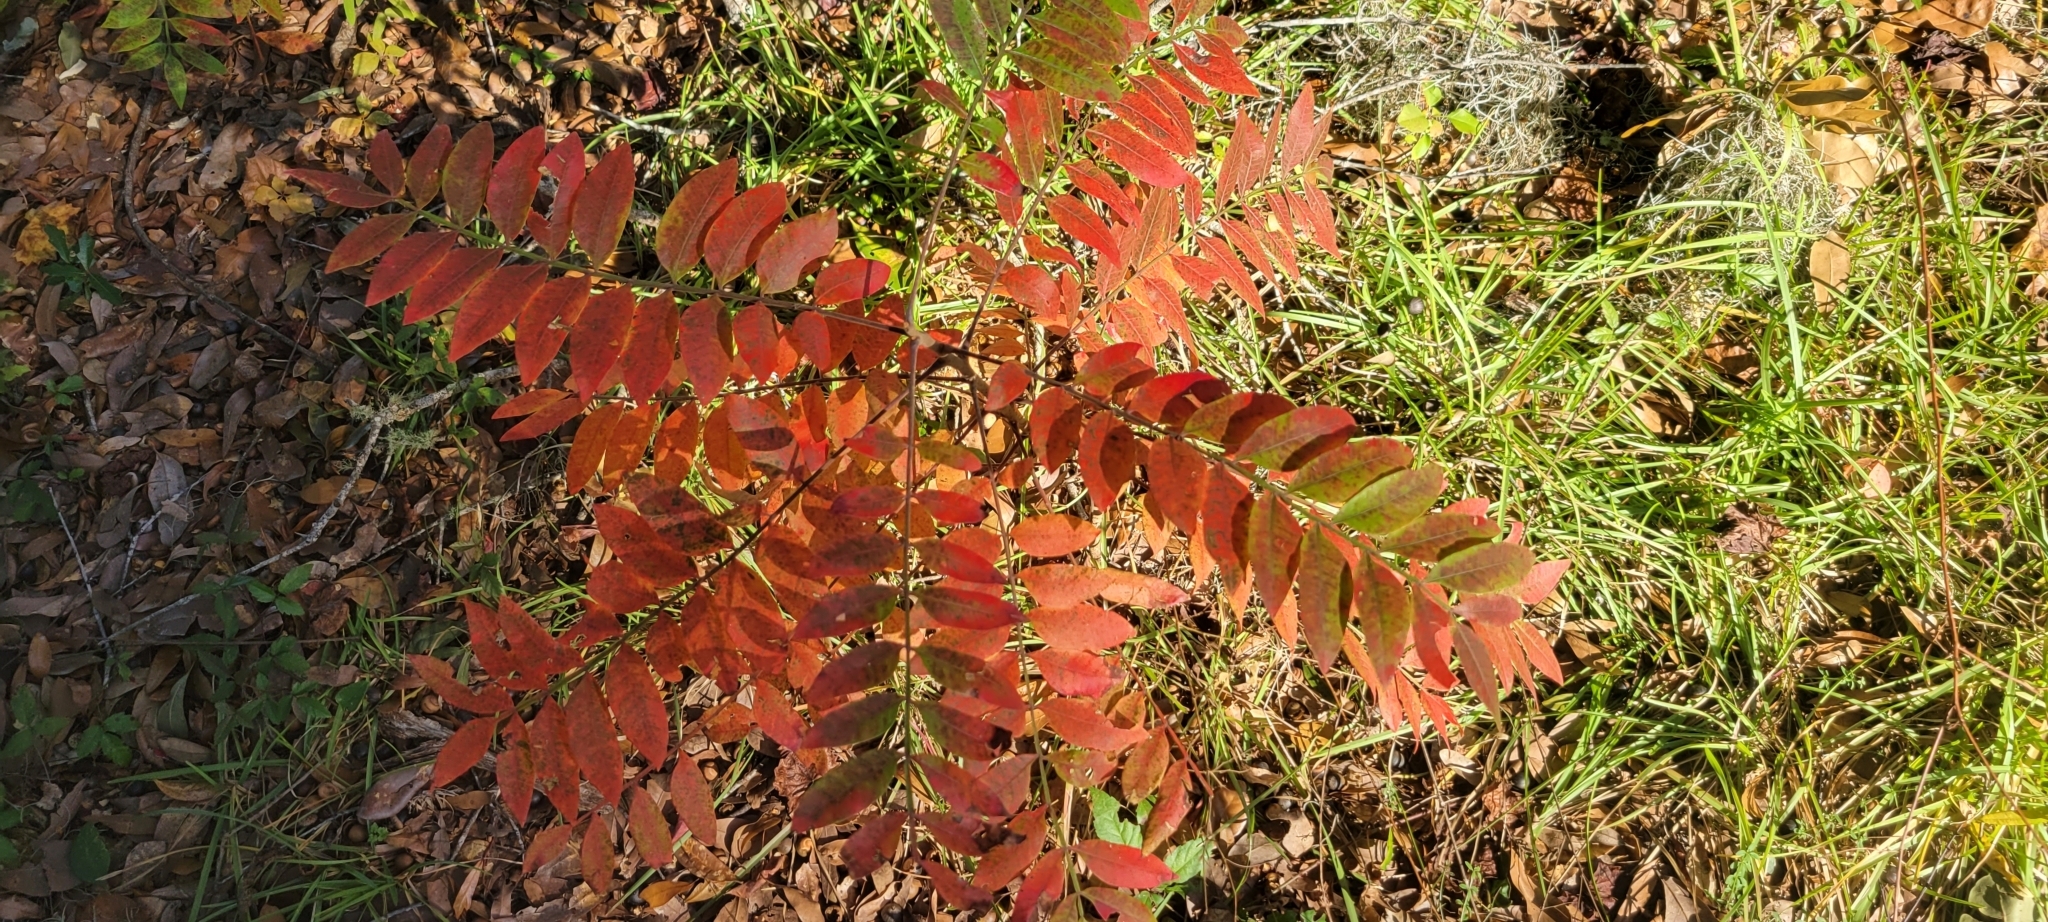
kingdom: Plantae
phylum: Tracheophyta
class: Magnoliopsida
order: Sapindales
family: Anacardiaceae
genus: Rhus
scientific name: Rhus copallina
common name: Shining sumac
